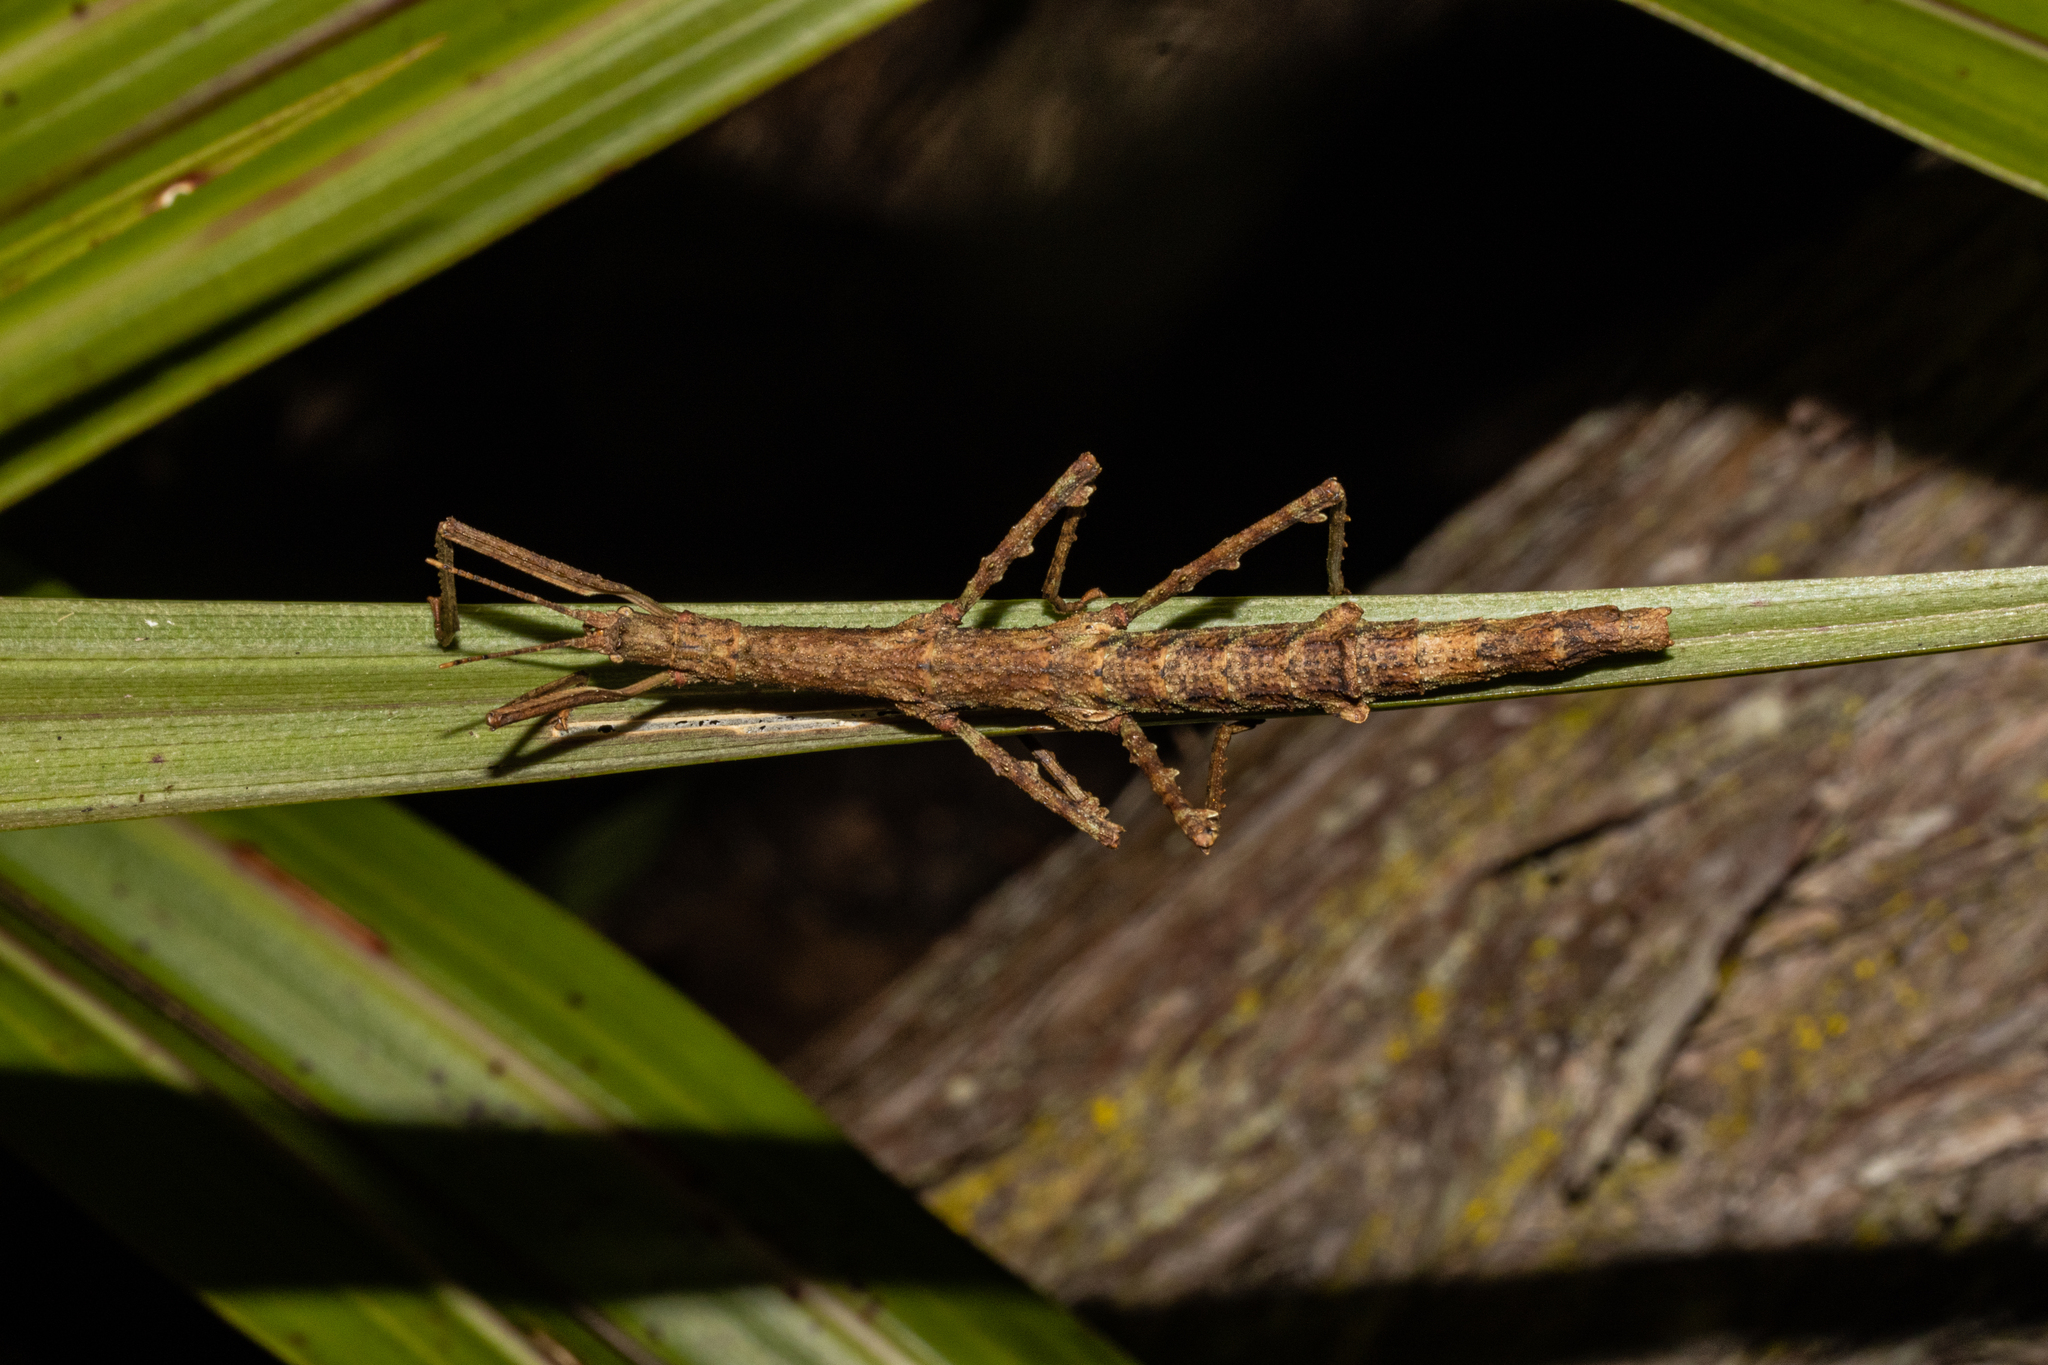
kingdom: Animalia
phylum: Arthropoda
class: Insecta
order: Phasmida
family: Phasmatidae
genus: Niveaphasma
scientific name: Niveaphasma annulatum
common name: Hutton's stick insect
